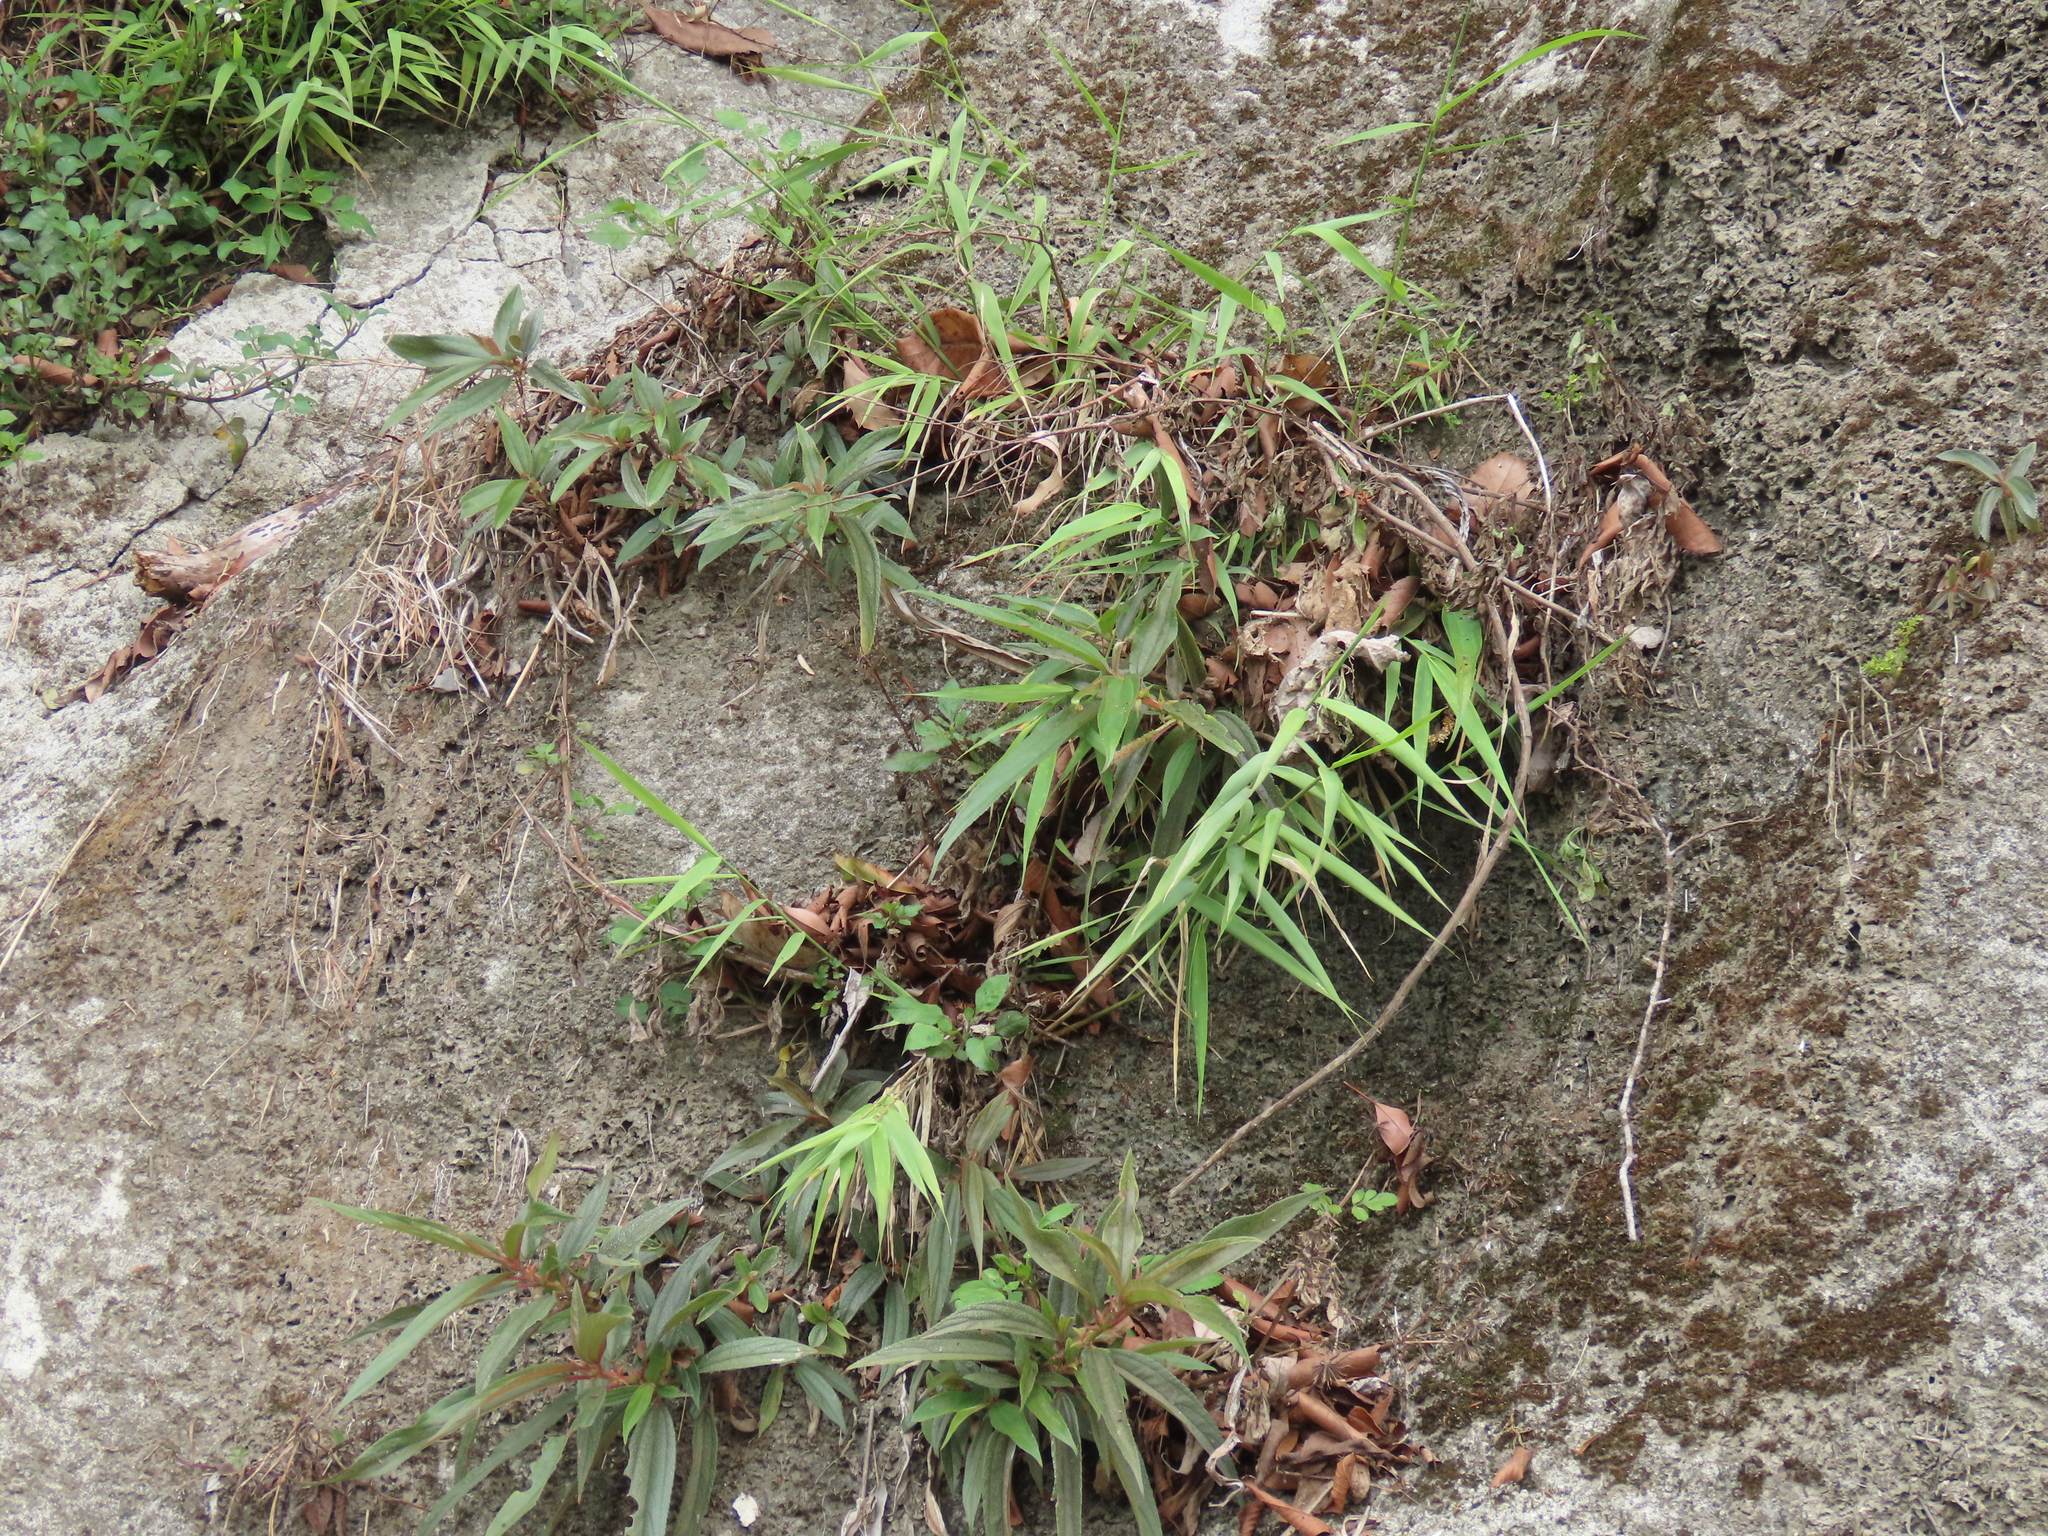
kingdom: Plantae
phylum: Tracheophyta
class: Liliopsida
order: Poales
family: Poaceae
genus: Arundo
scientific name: Arundo formosana
